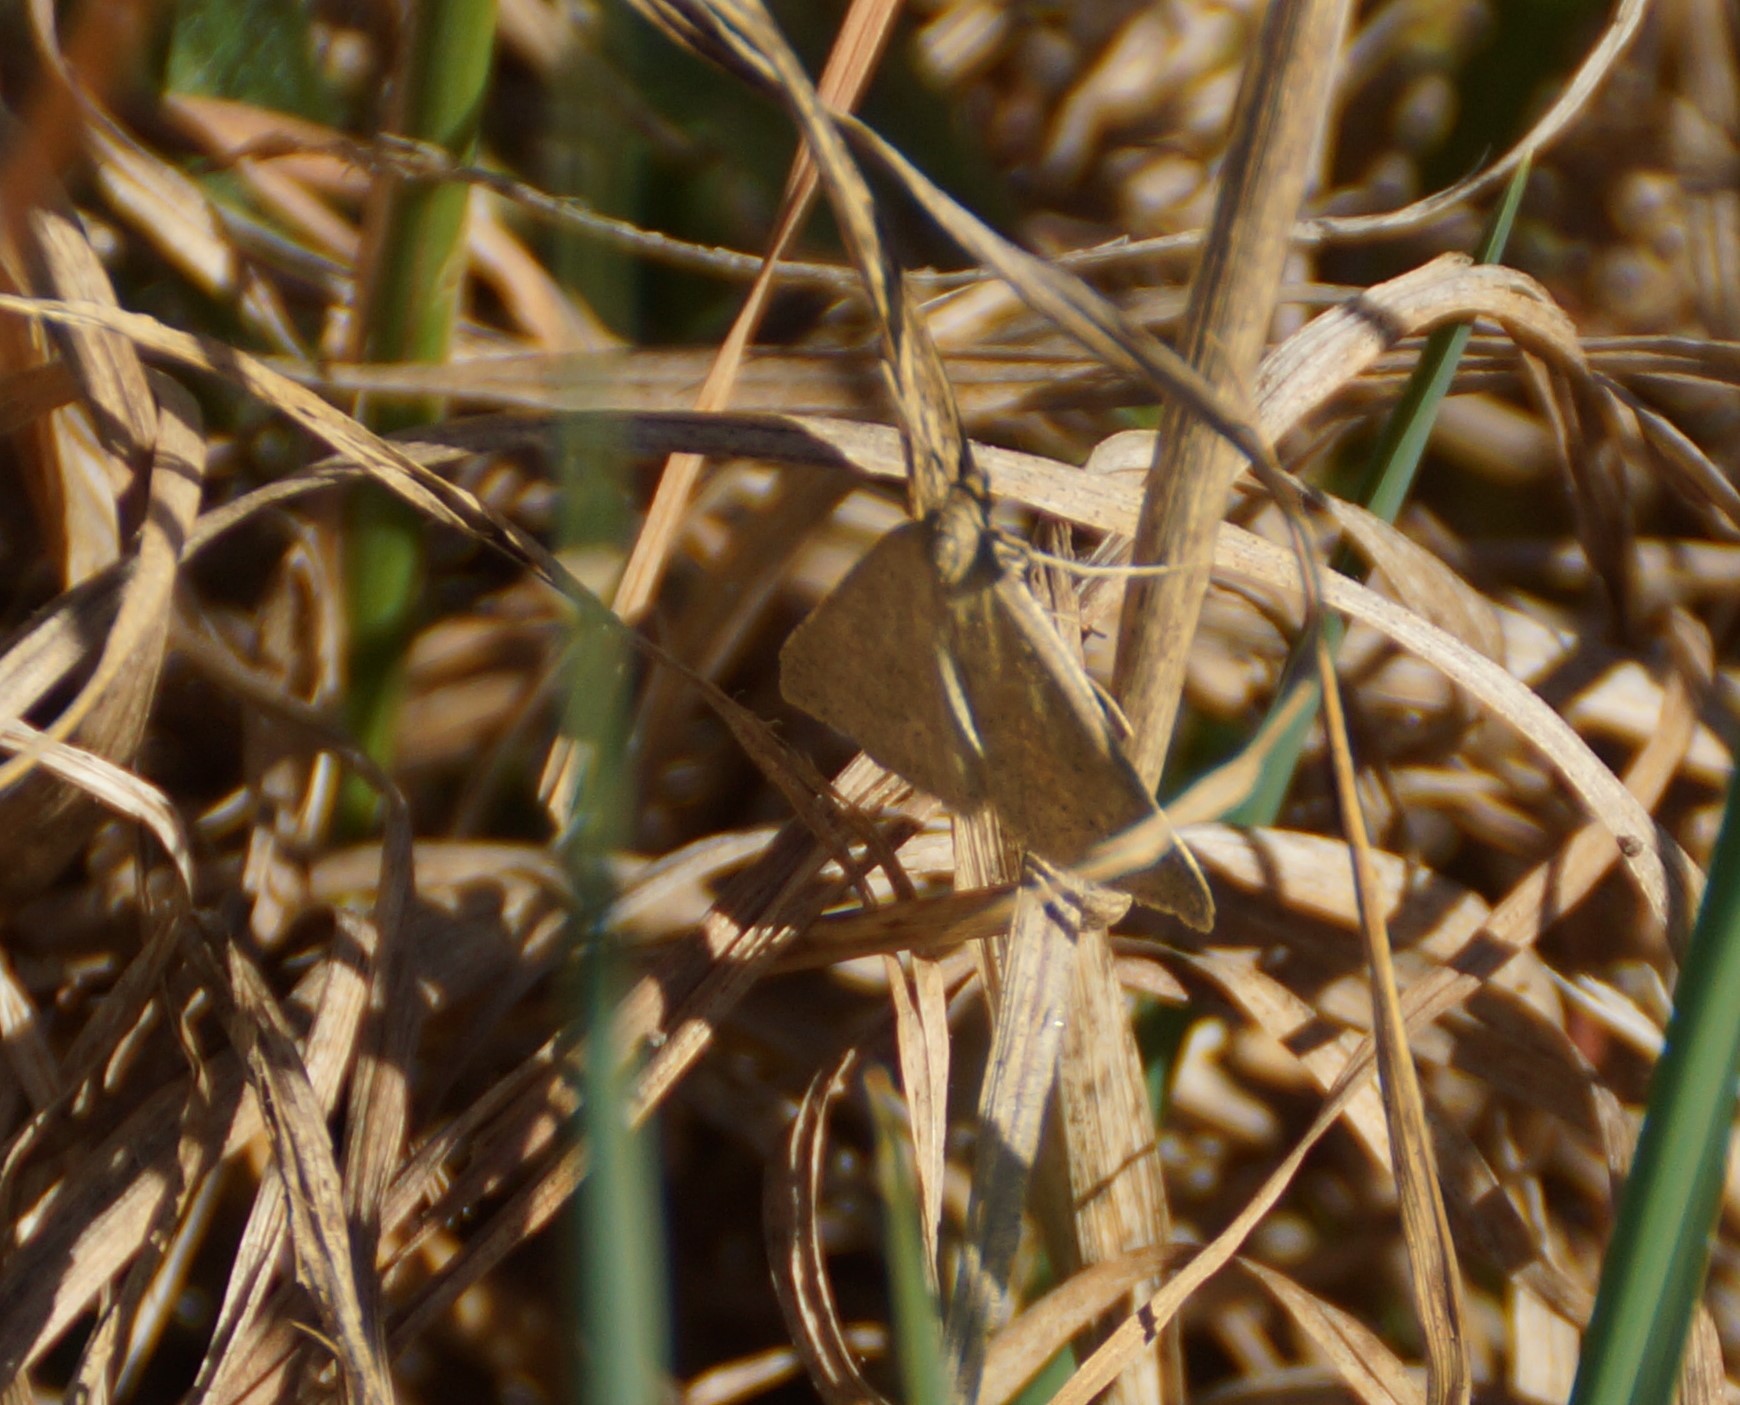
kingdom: Animalia
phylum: Arthropoda
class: Insecta
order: Lepidoptera
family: Geometridae
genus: Neritodes
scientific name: Neritodes verrucata
